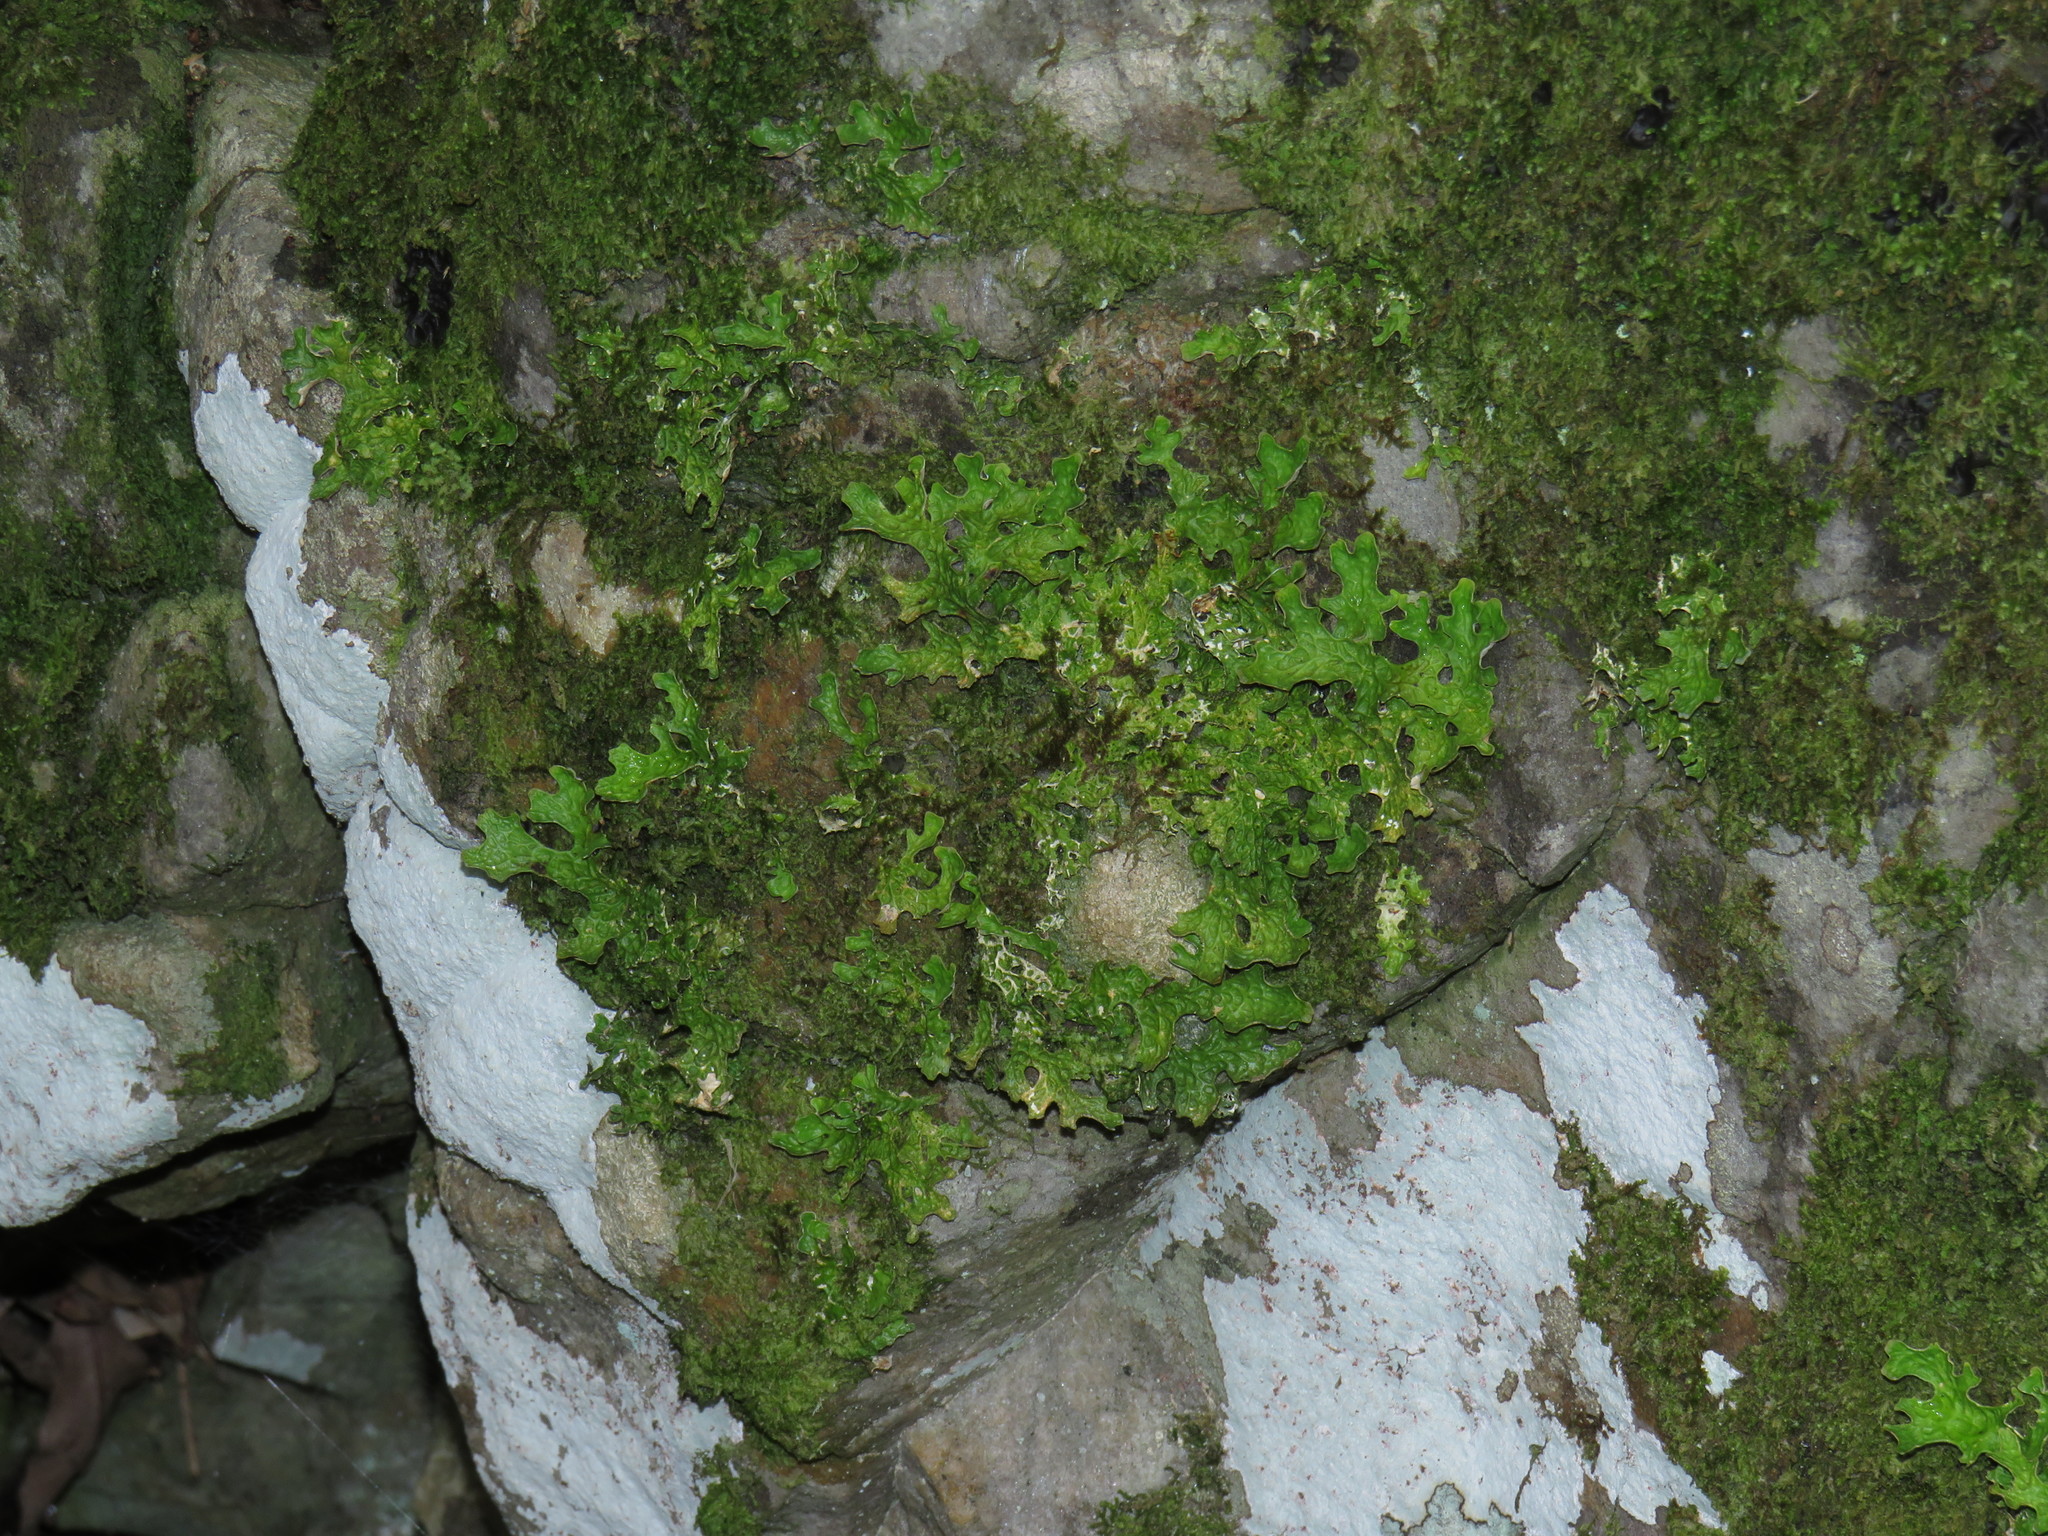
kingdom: Fungi
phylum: Ascomycota
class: Lecanoromycetes
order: Peltigerales
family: Lobariaceae
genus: Lobaria
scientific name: Lobaria pulmonaria
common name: Lungwort
